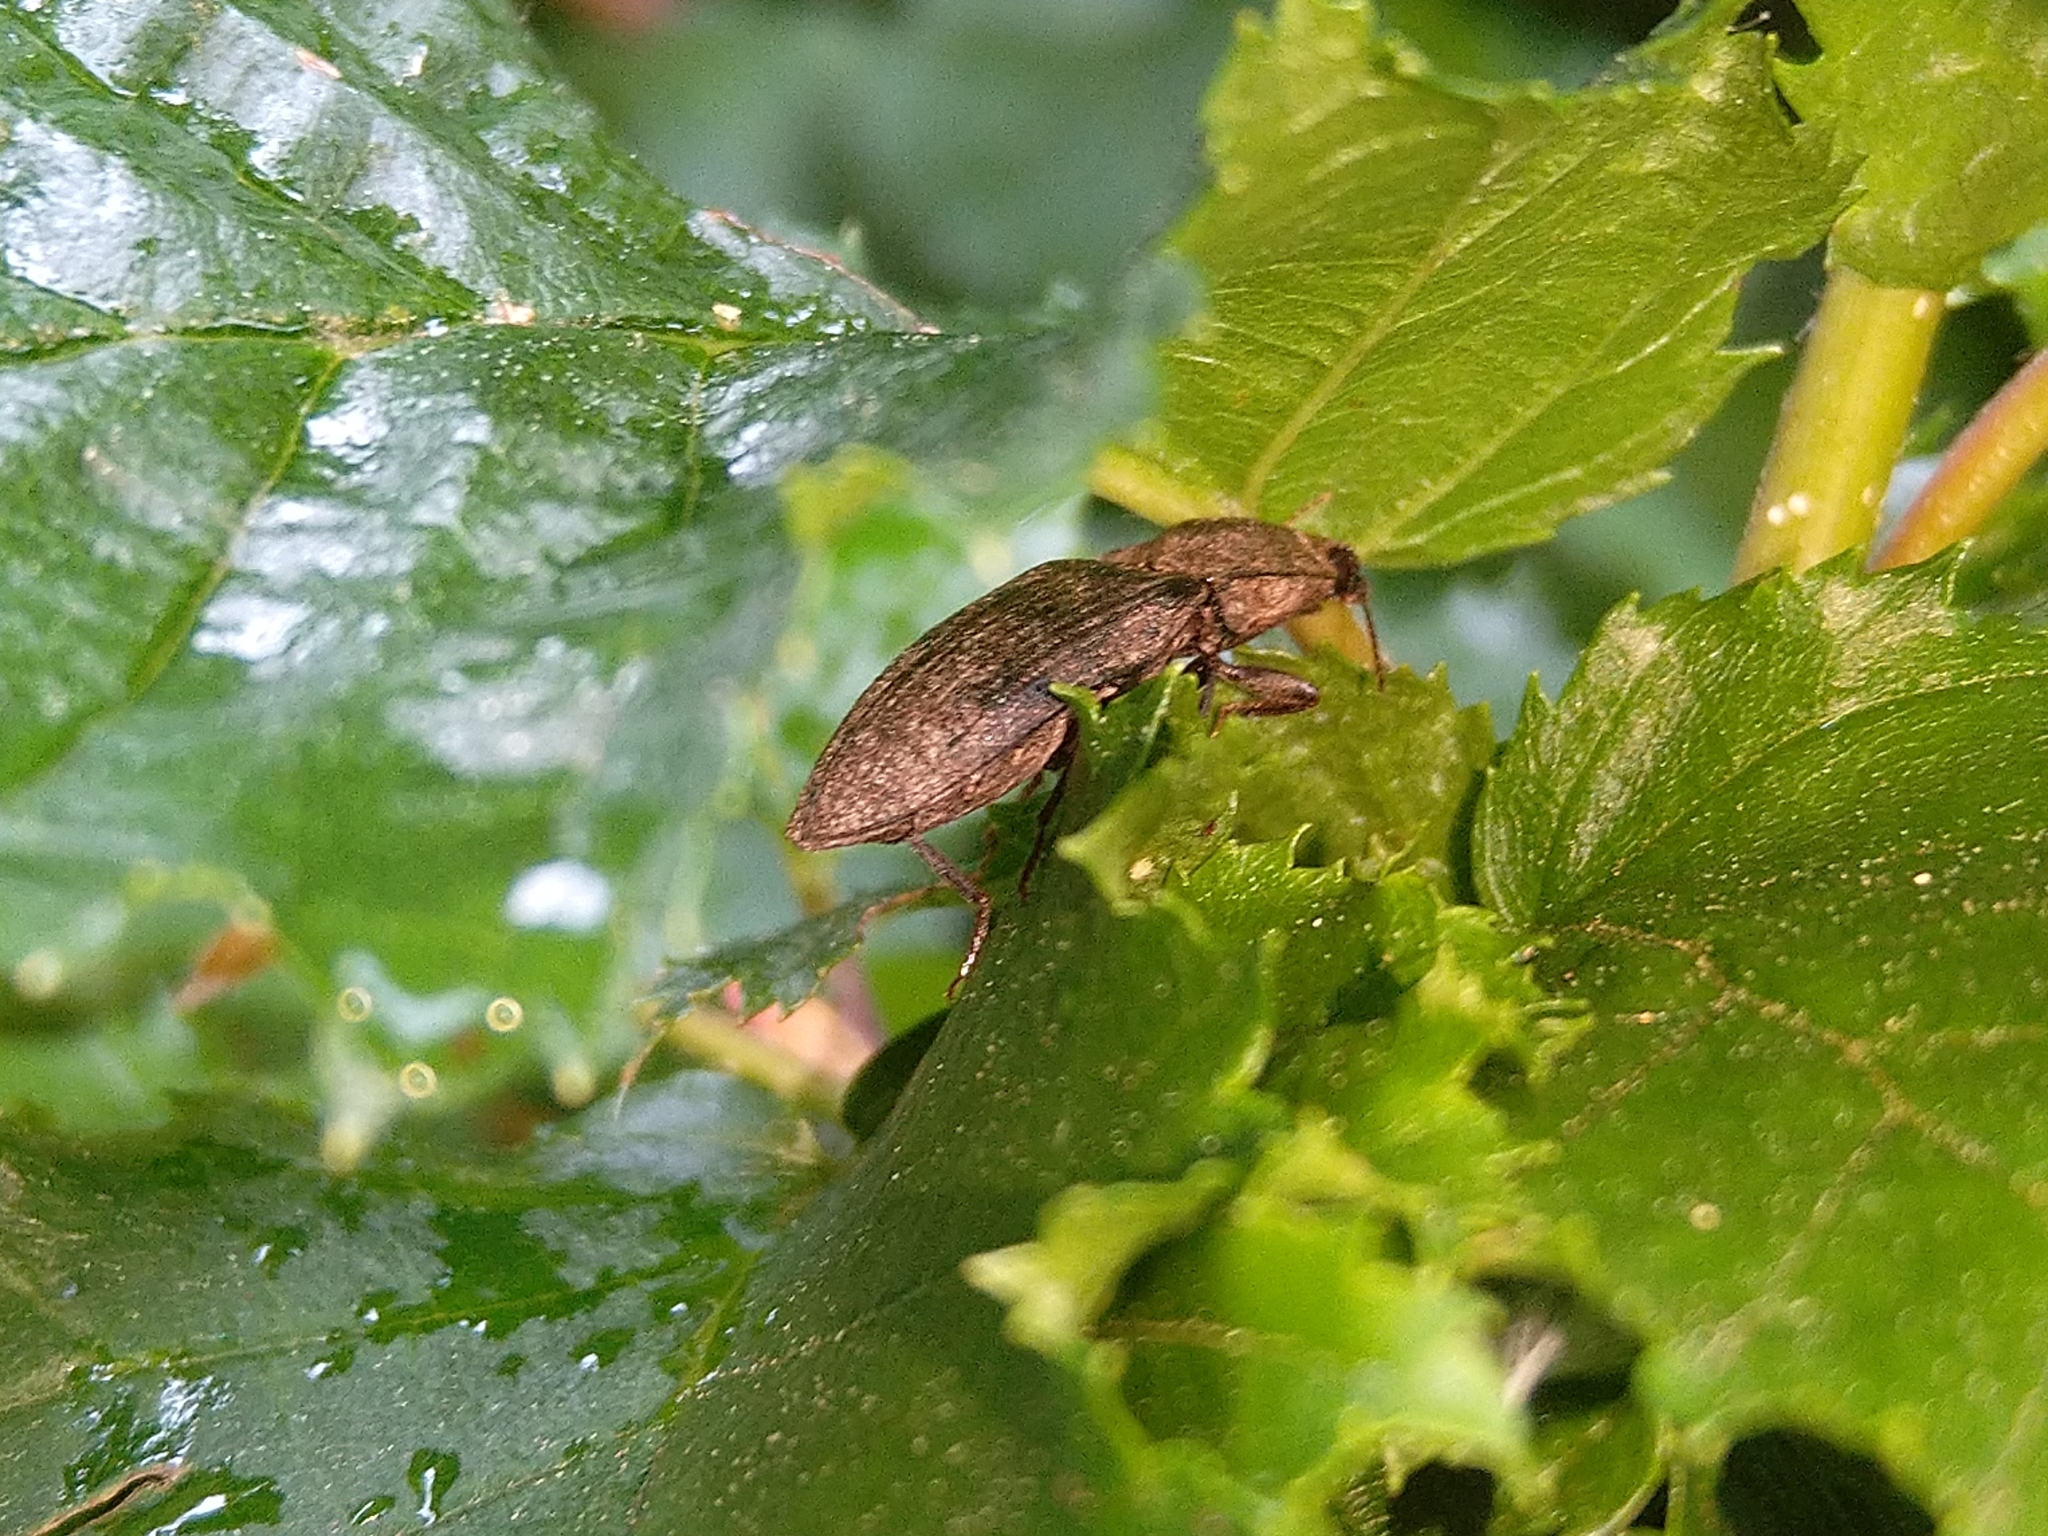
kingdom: Animalia
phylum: Arthropoda
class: Insecta
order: Coleoptera
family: Elateridae
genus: Agrypnus
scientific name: Agrypnus murinus
